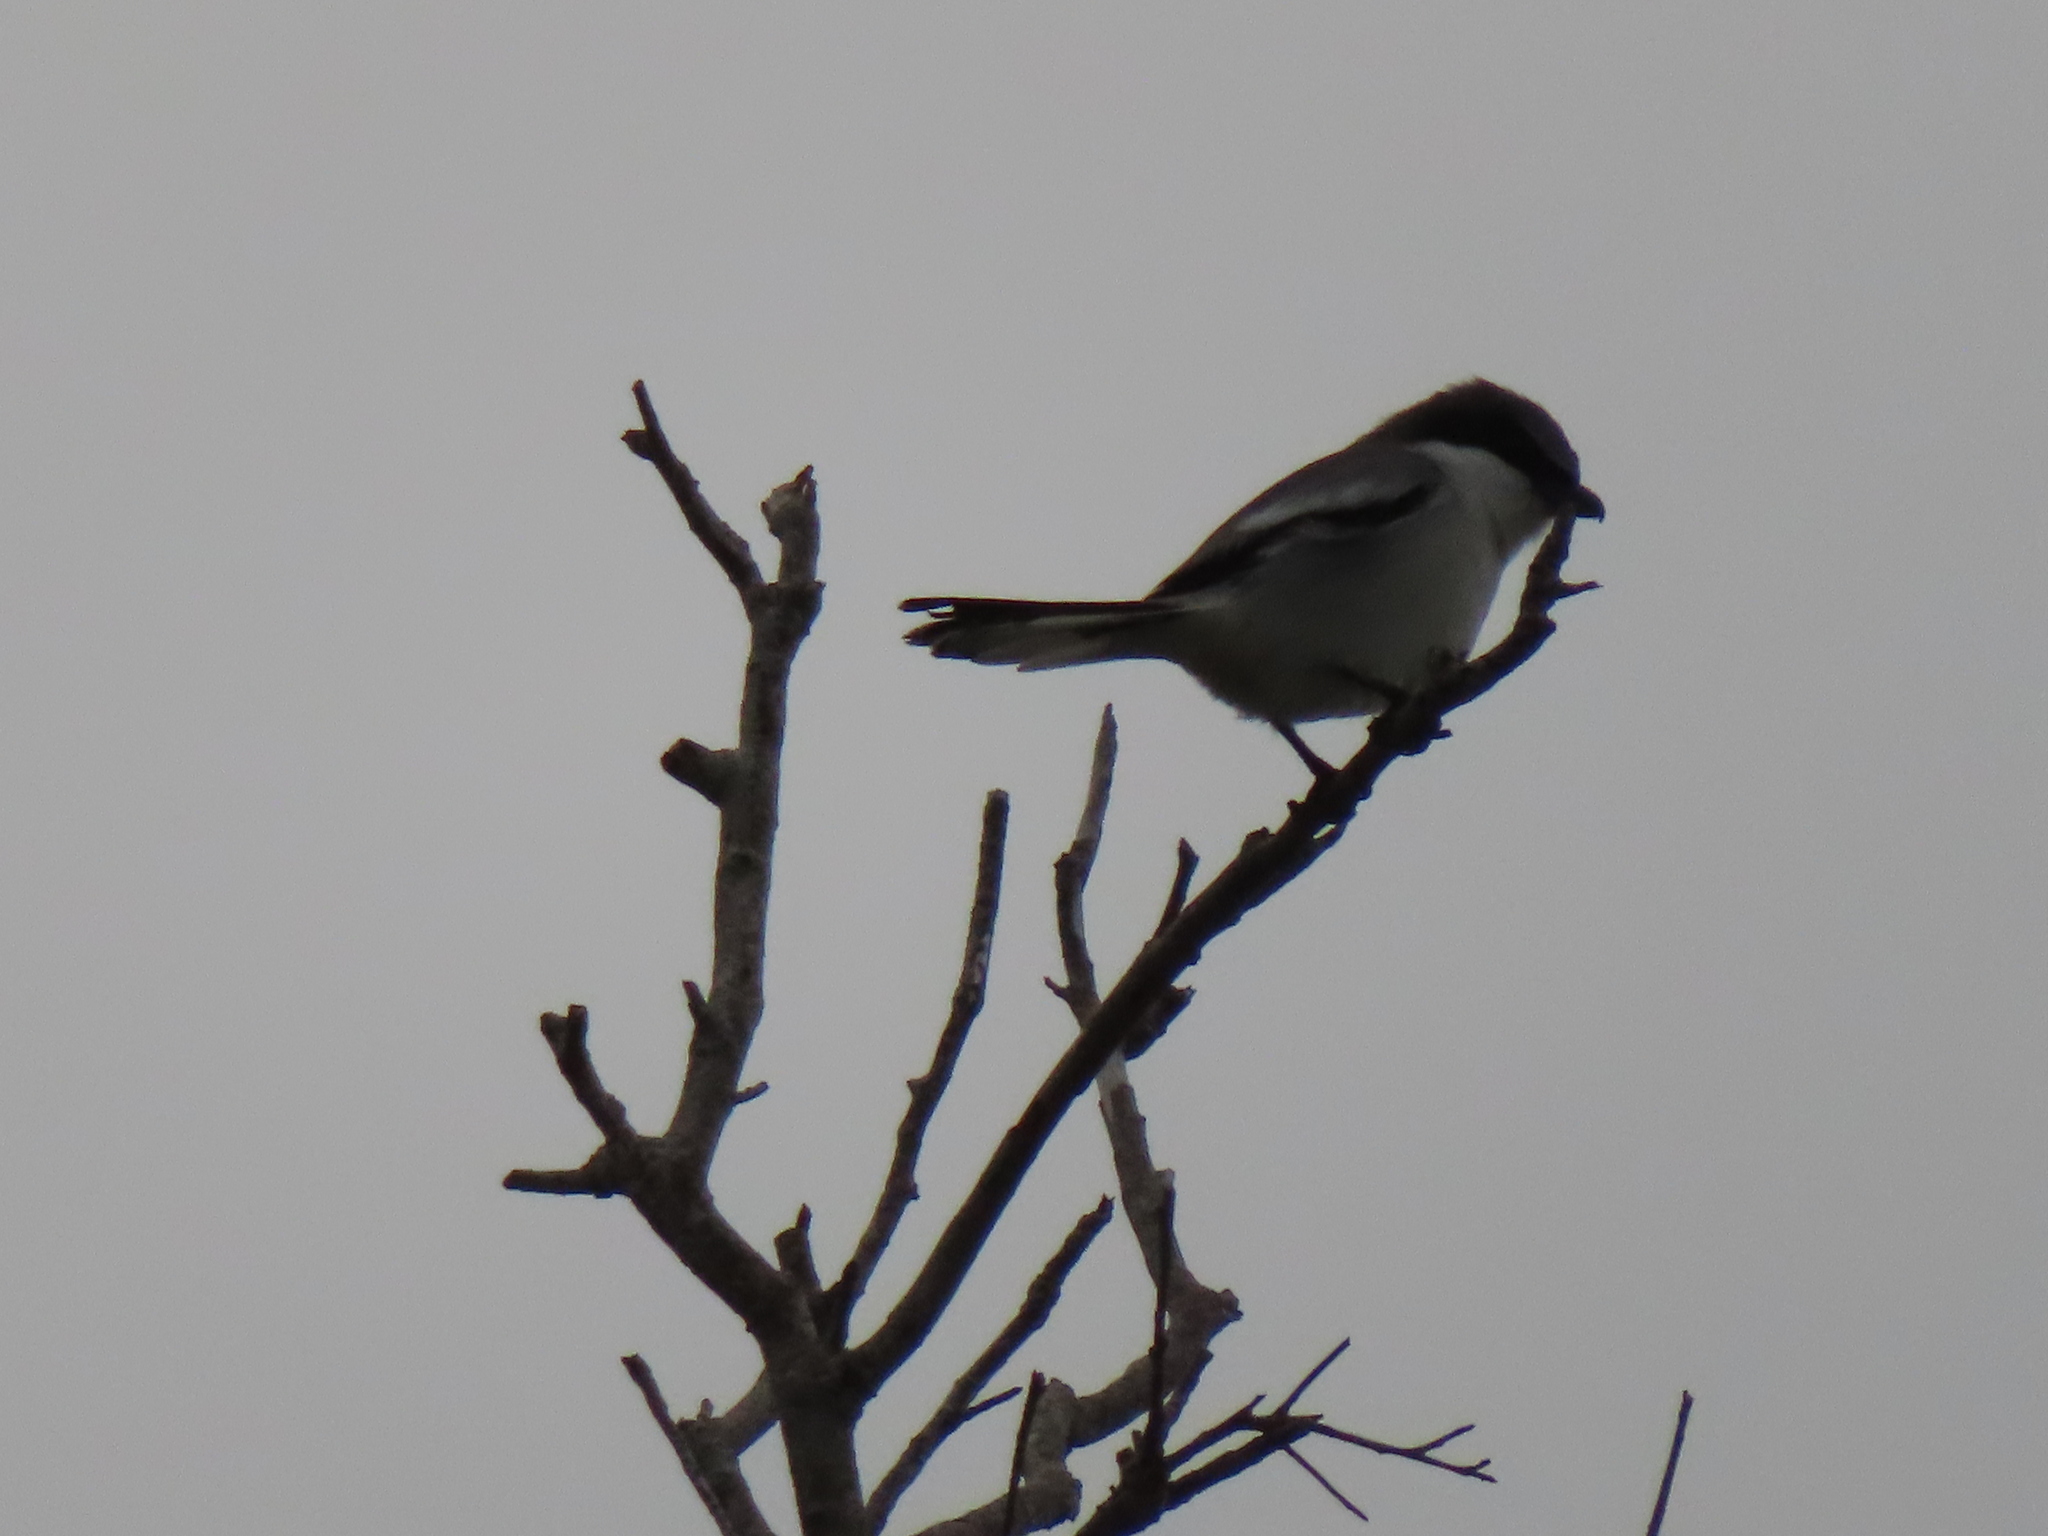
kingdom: Animalia
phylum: Chordata
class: Aves
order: Passeriformes
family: Laniidae
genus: Lanius
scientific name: Lanius ludovicianus
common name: Loggerhead shrike
